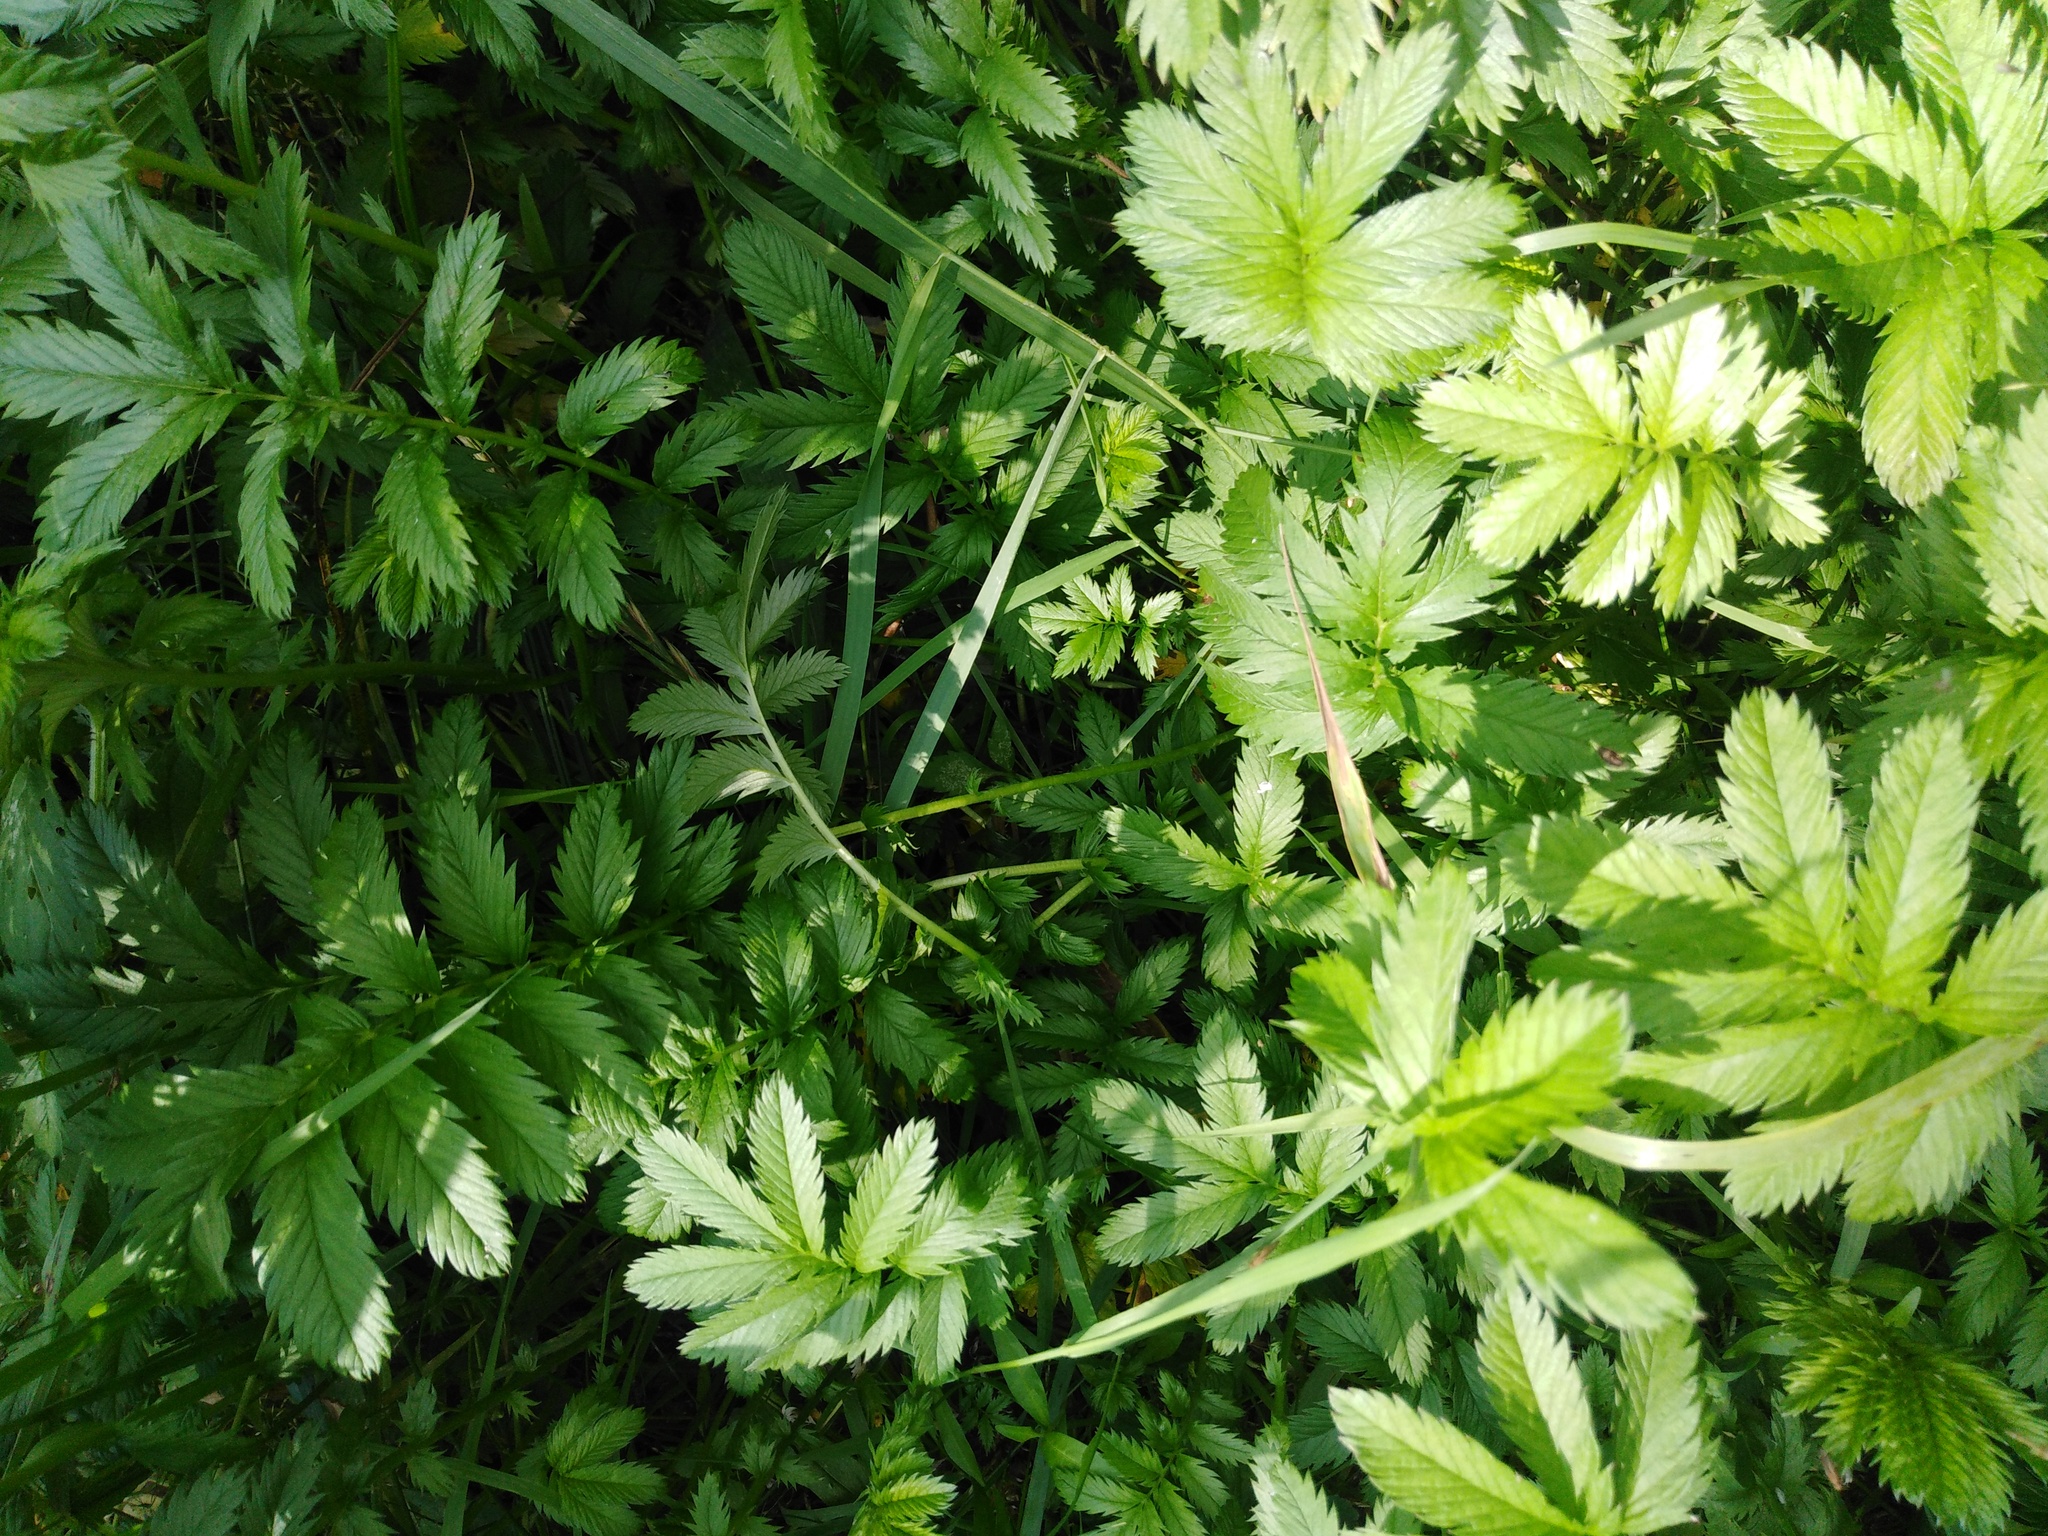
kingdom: Plantae
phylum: Tracheophyta
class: Magnoliopsida
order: Rosales
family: Rosaceae
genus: Argentina
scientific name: Argentina anserina
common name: Common silverweed
